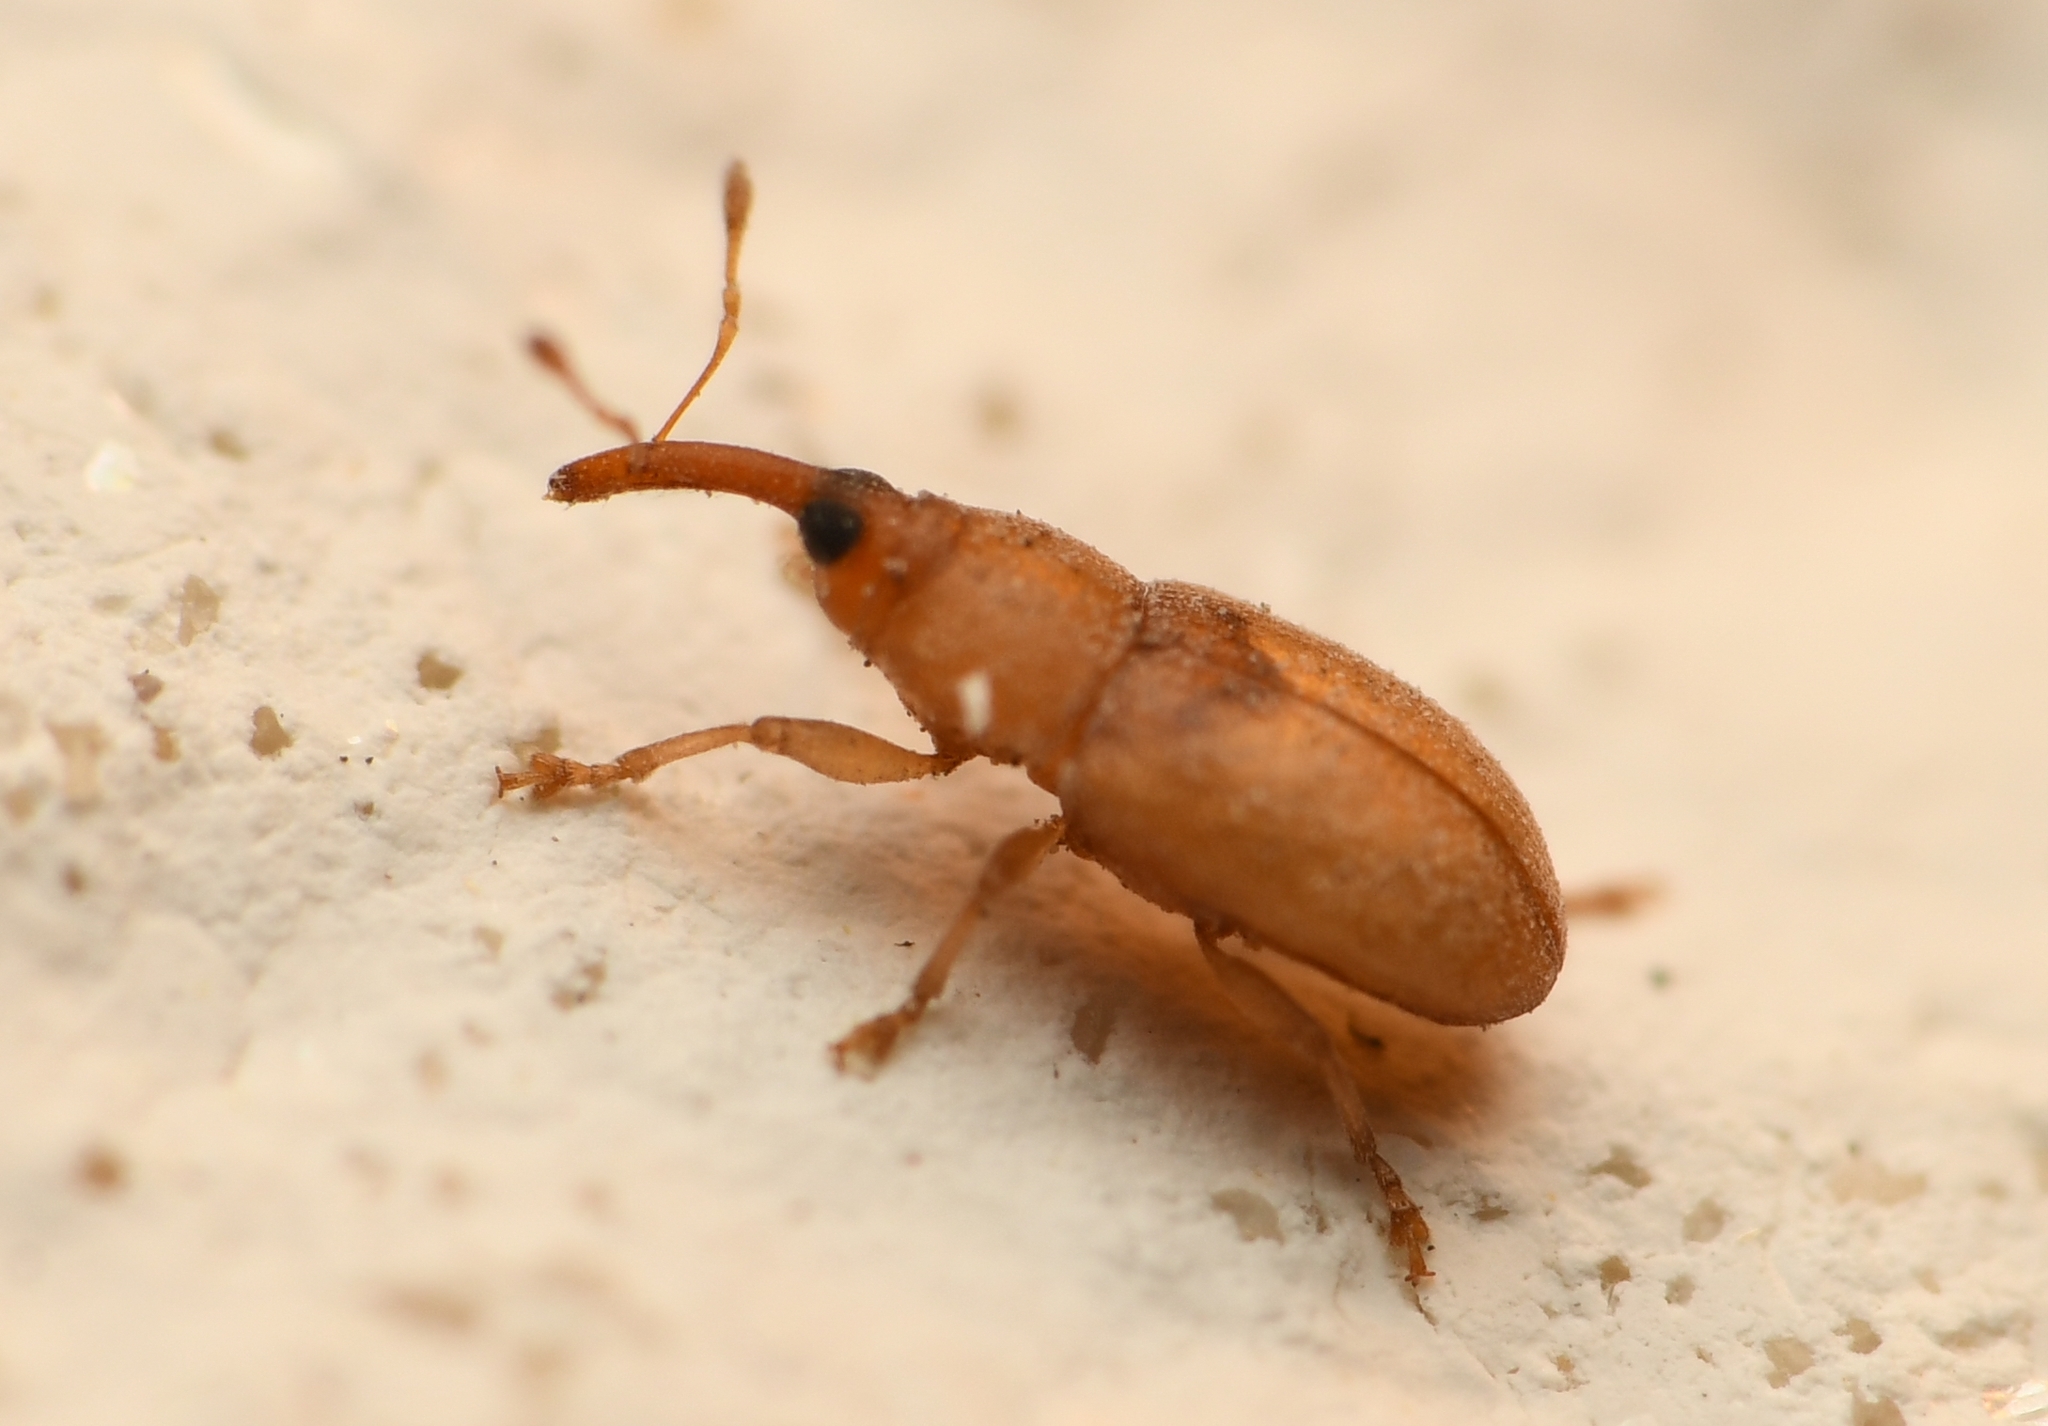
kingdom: Animalia
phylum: Arthropoda
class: Insecta
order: Coleoptera
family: Curculionidae
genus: Notolomus
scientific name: Notolomus basalis
